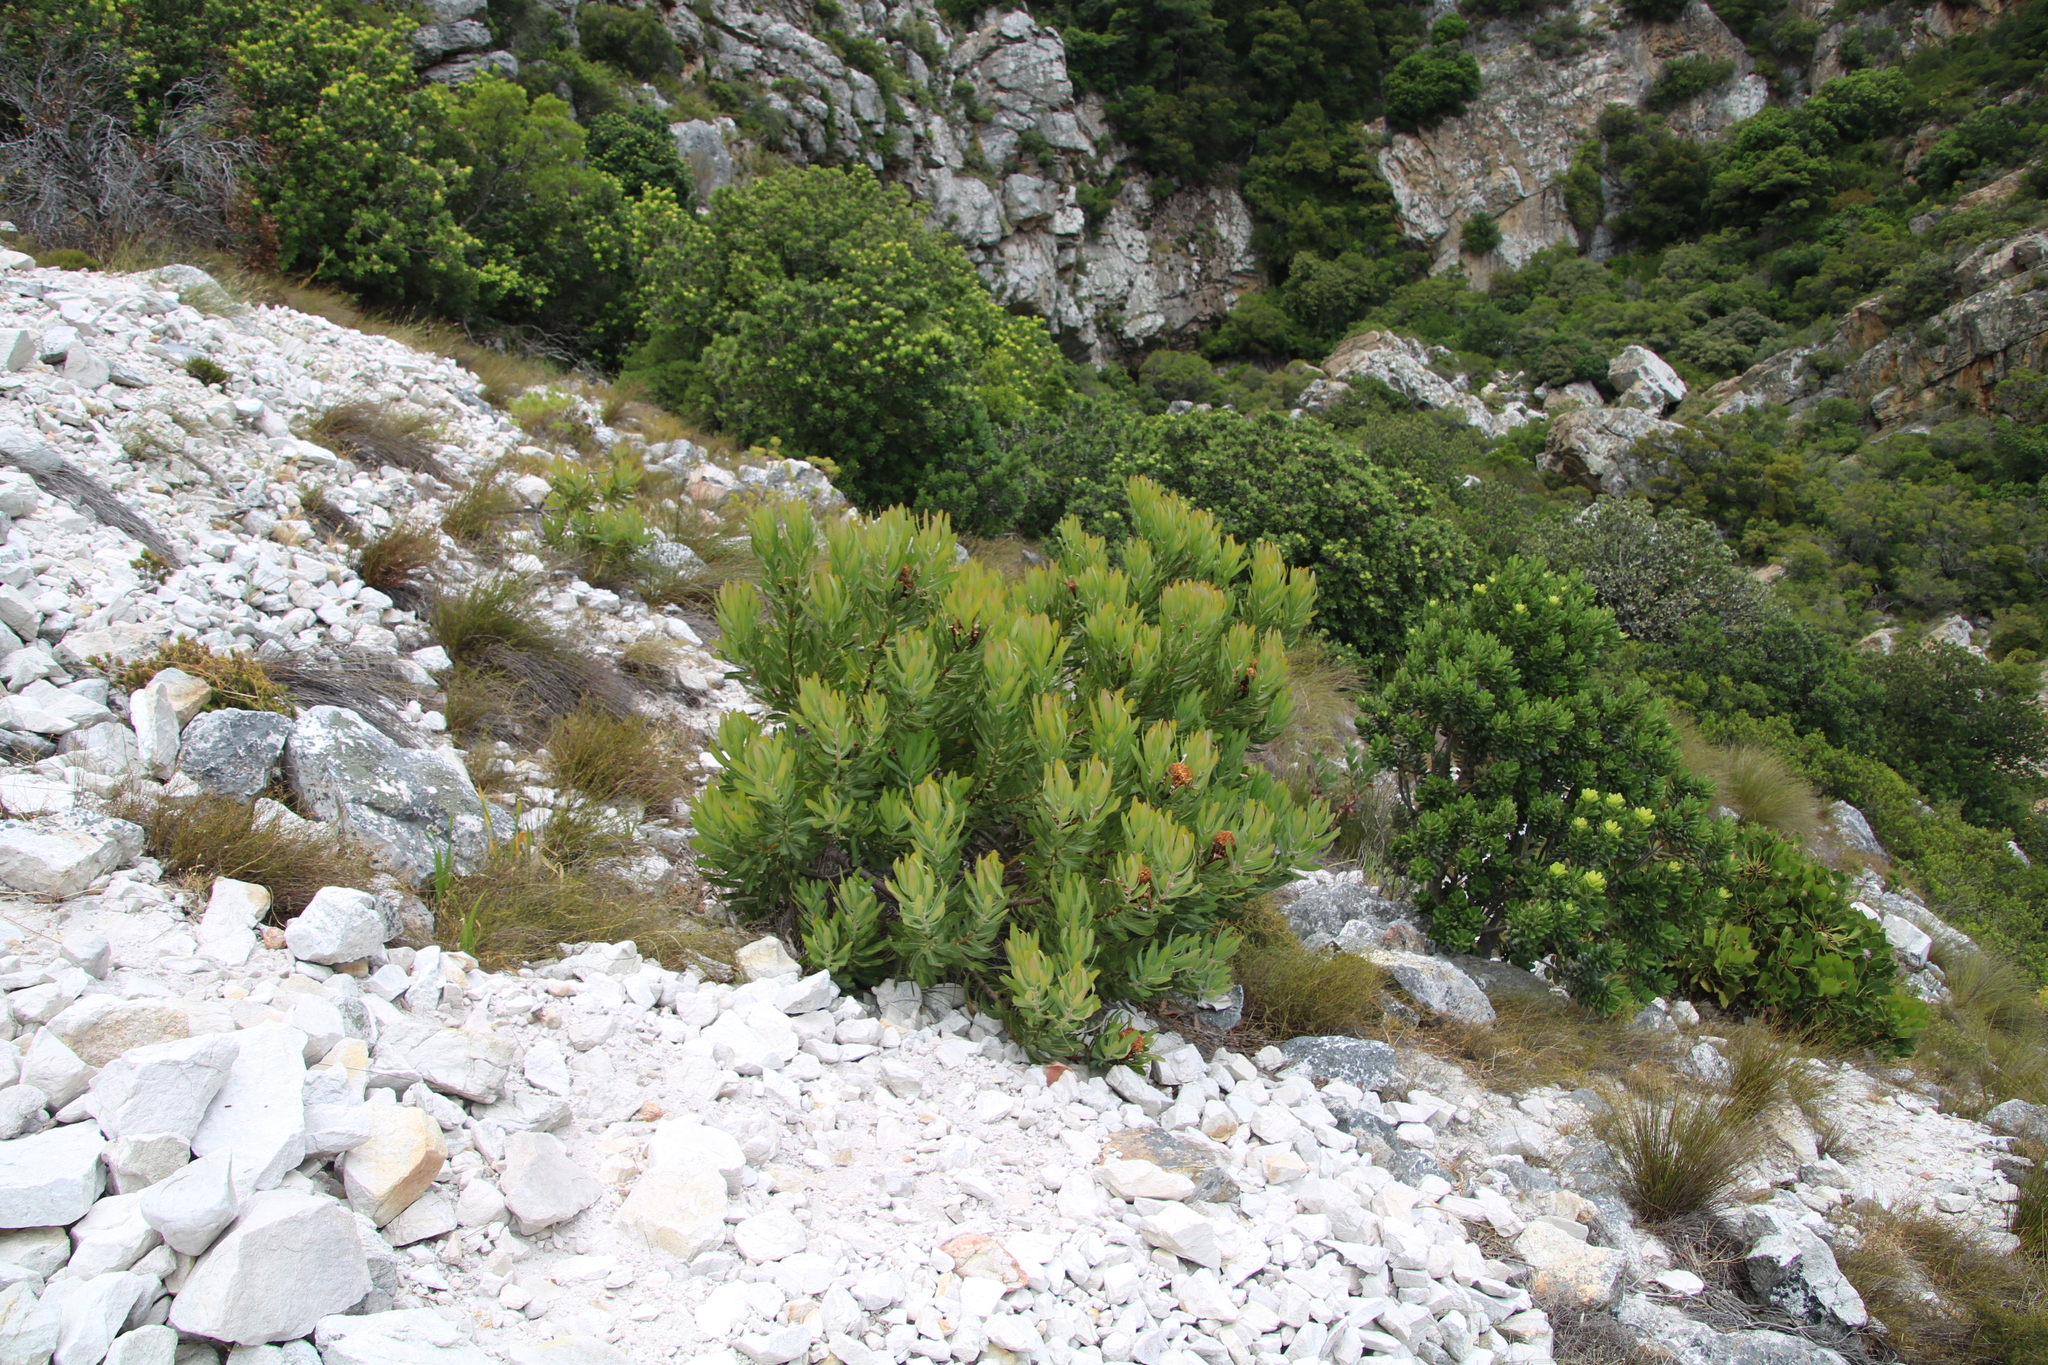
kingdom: Plantae
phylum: Tracheophyta
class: Magnoliopsida
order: Proteales
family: Proteaceae
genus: Protea
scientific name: Protea neriifolia
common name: Blue sugarbush
